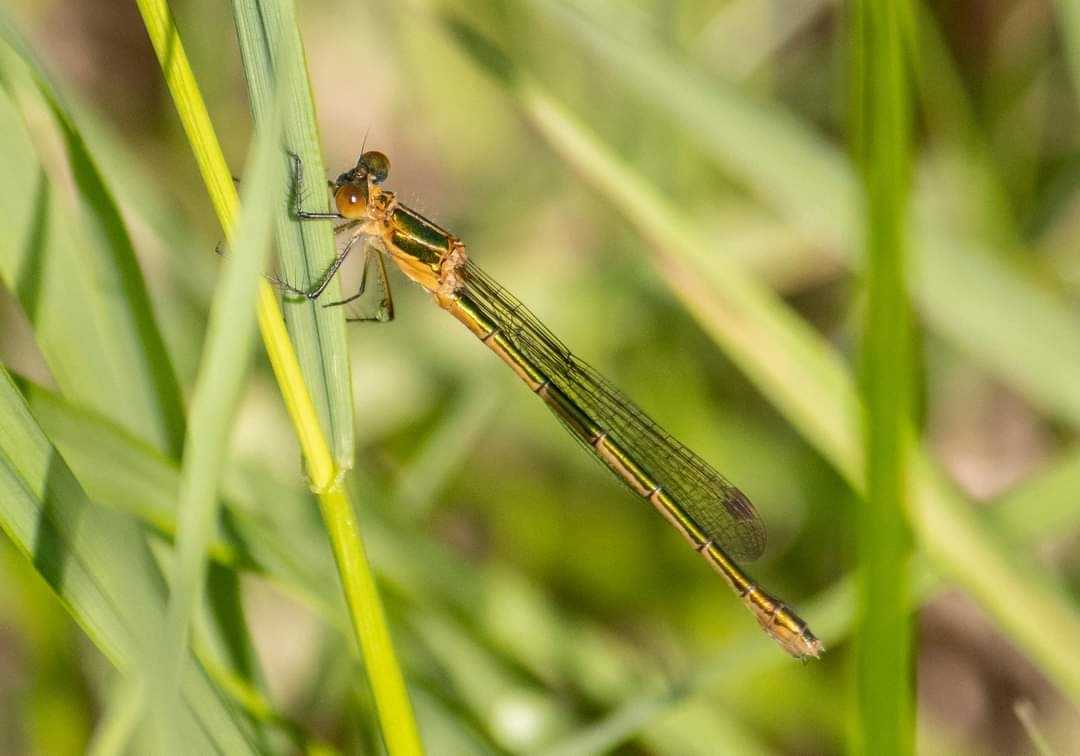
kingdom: Animalia
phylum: Arthropoda
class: Insecta
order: Odonata
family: Lestidae
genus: Lestes
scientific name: Lestes sponsa
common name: Common spreadwing
